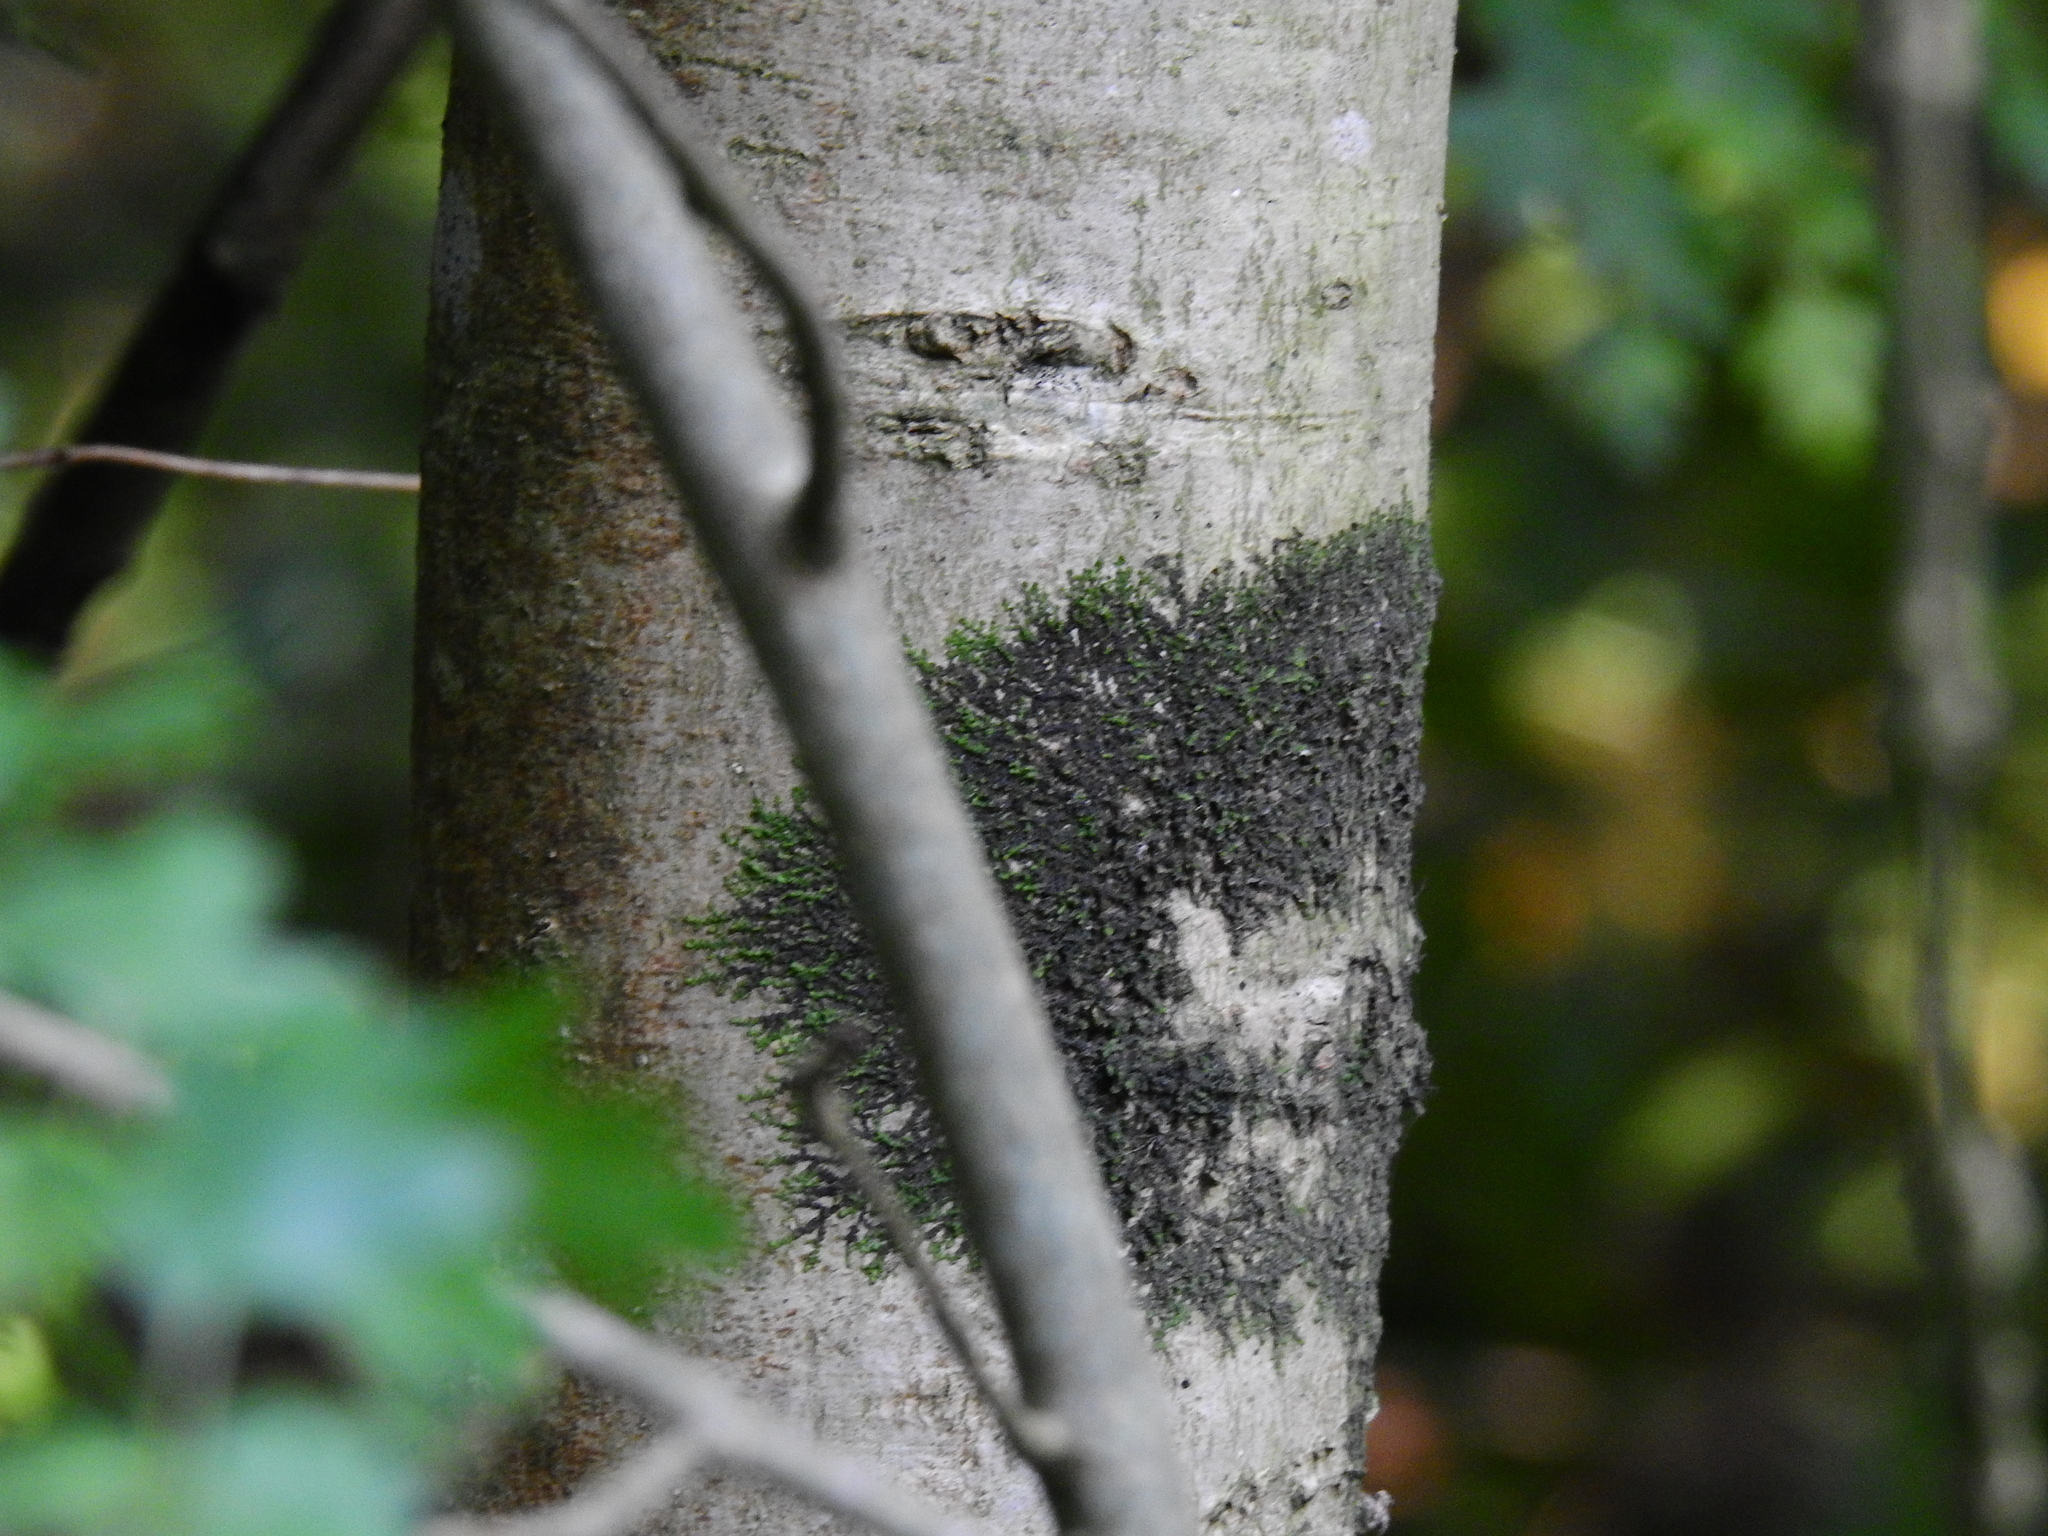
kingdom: Plantae
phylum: Marchantiophyta
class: Jungermanniopsida
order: Porellales
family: Frullaniaceae
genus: Frullania
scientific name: Frullania dilatata
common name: Dilated scalewort
